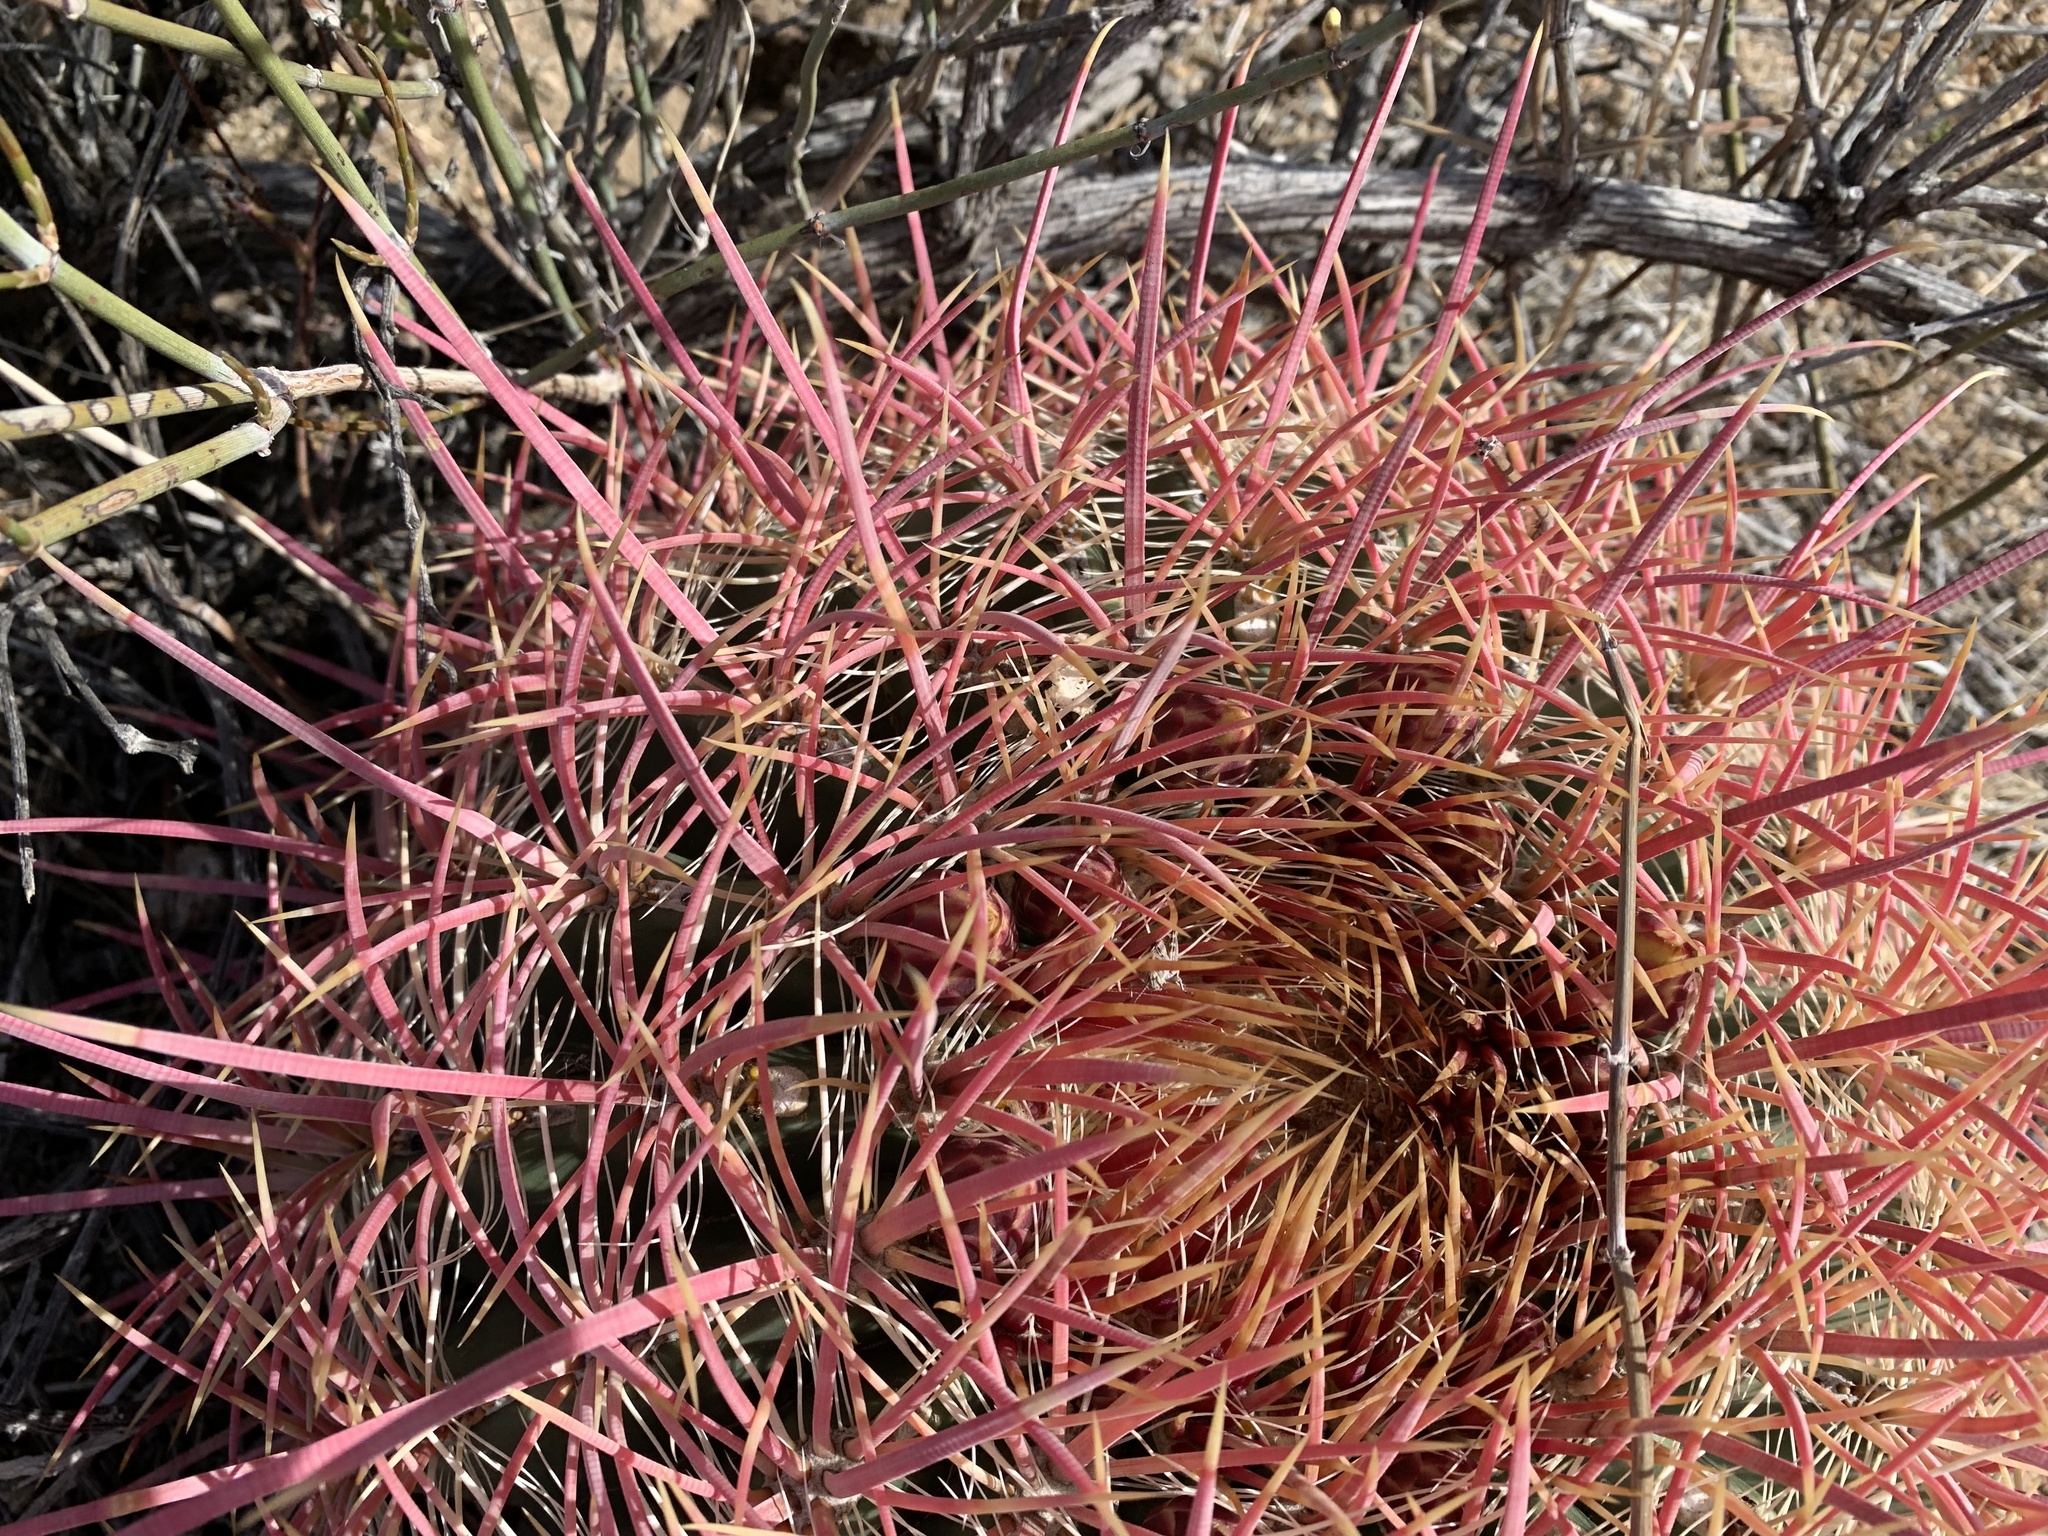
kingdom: Plantae
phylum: Tracheophyta
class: Magnoliopsida
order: Caryophyllales
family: Cactaceae
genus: Ferocactus
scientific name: Ferocactus cylindraceus
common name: California barrel cactus
